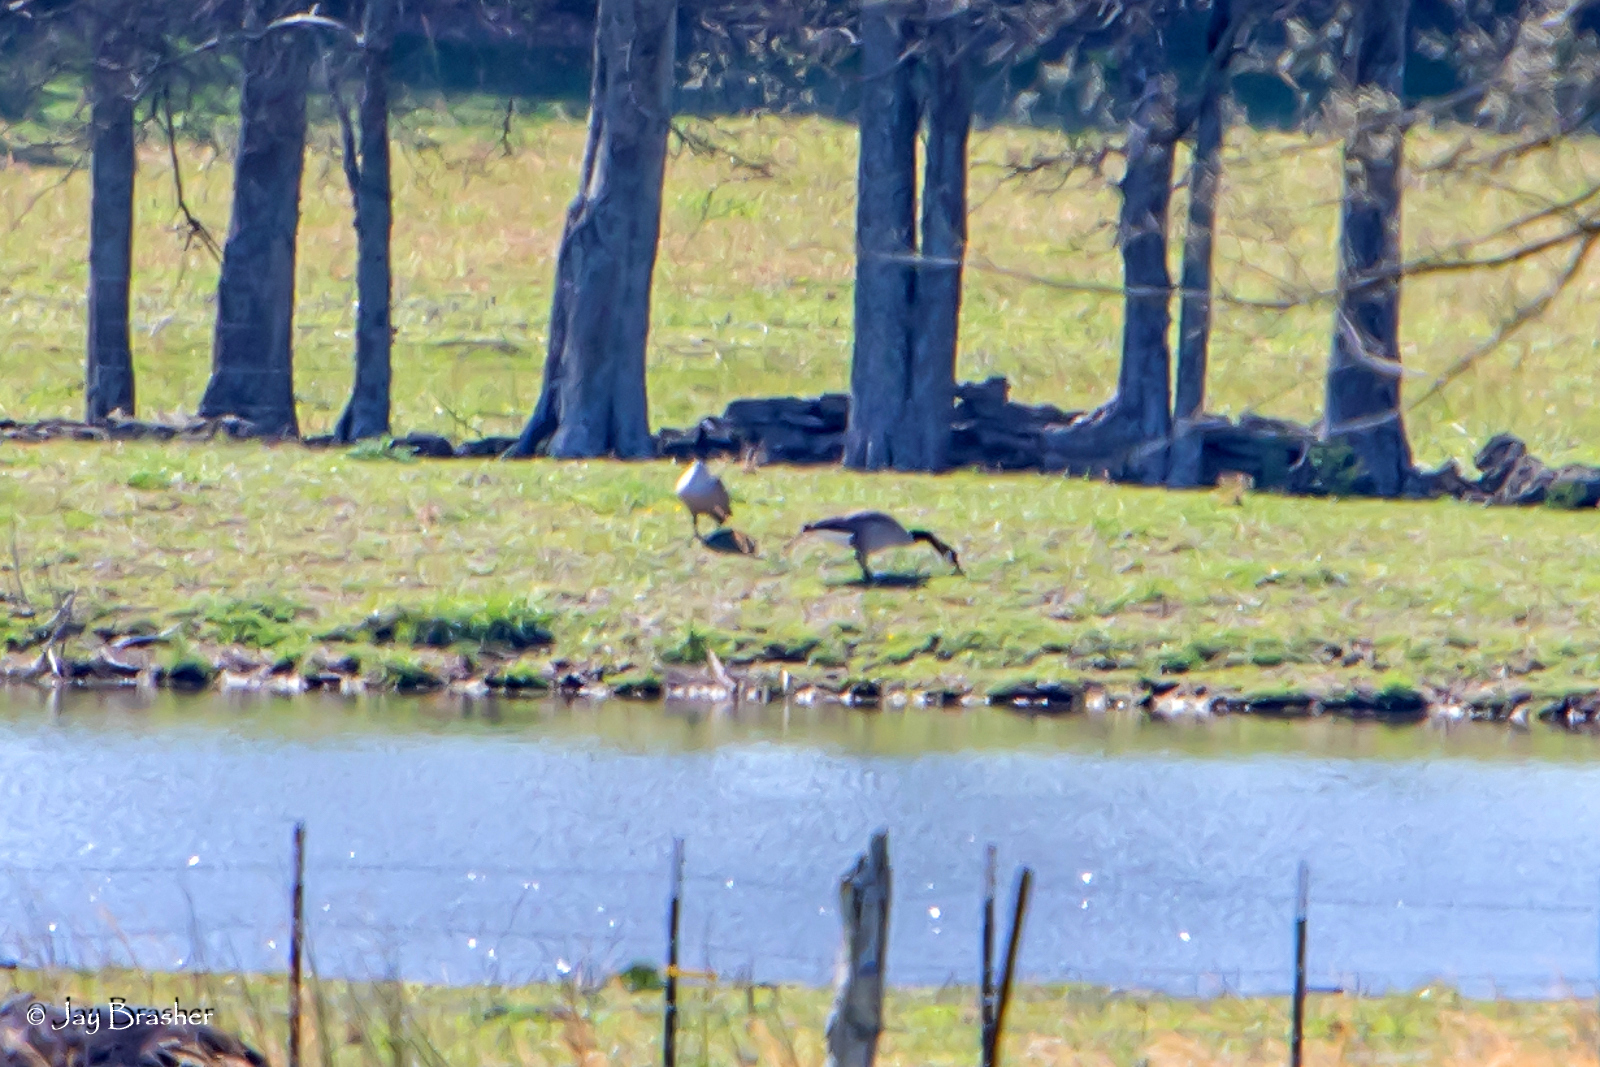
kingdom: Animalia
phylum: Chordata
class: Aves
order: Anseriformes
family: Anatidae
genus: Branta
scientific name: Branta canadensis
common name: Canada goose
